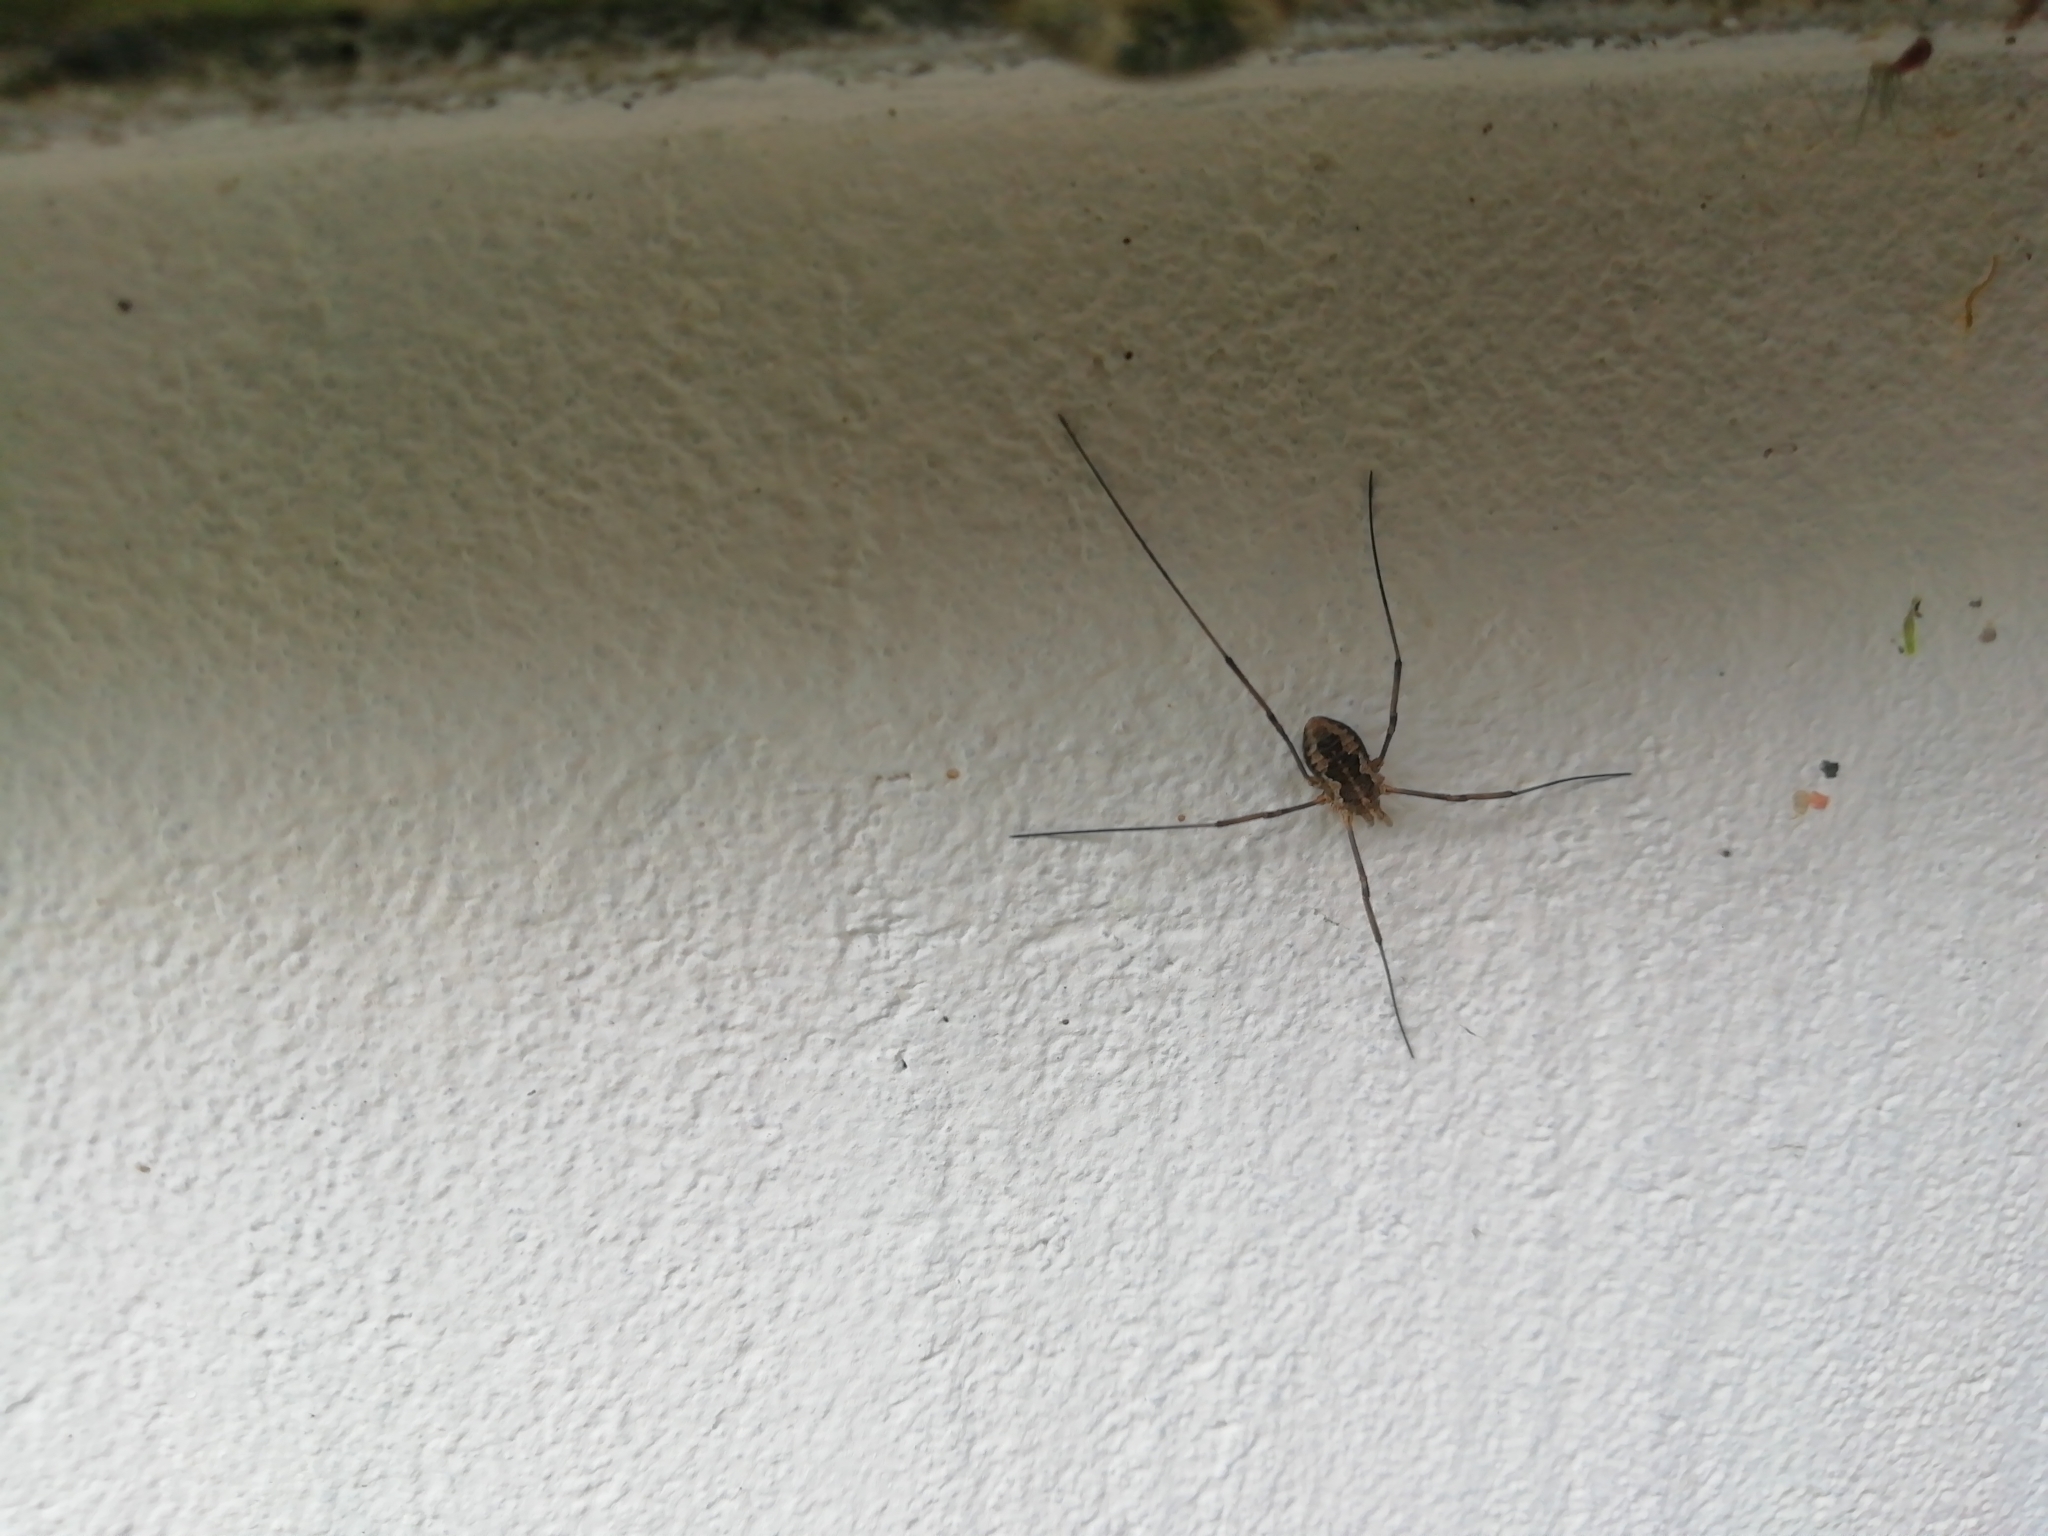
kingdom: Animalia
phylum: Arthropoda
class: Arachnida
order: Opiliones
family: Phalangiidae
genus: Phalangium
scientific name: Phalangium opilio
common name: Daddy longleg
